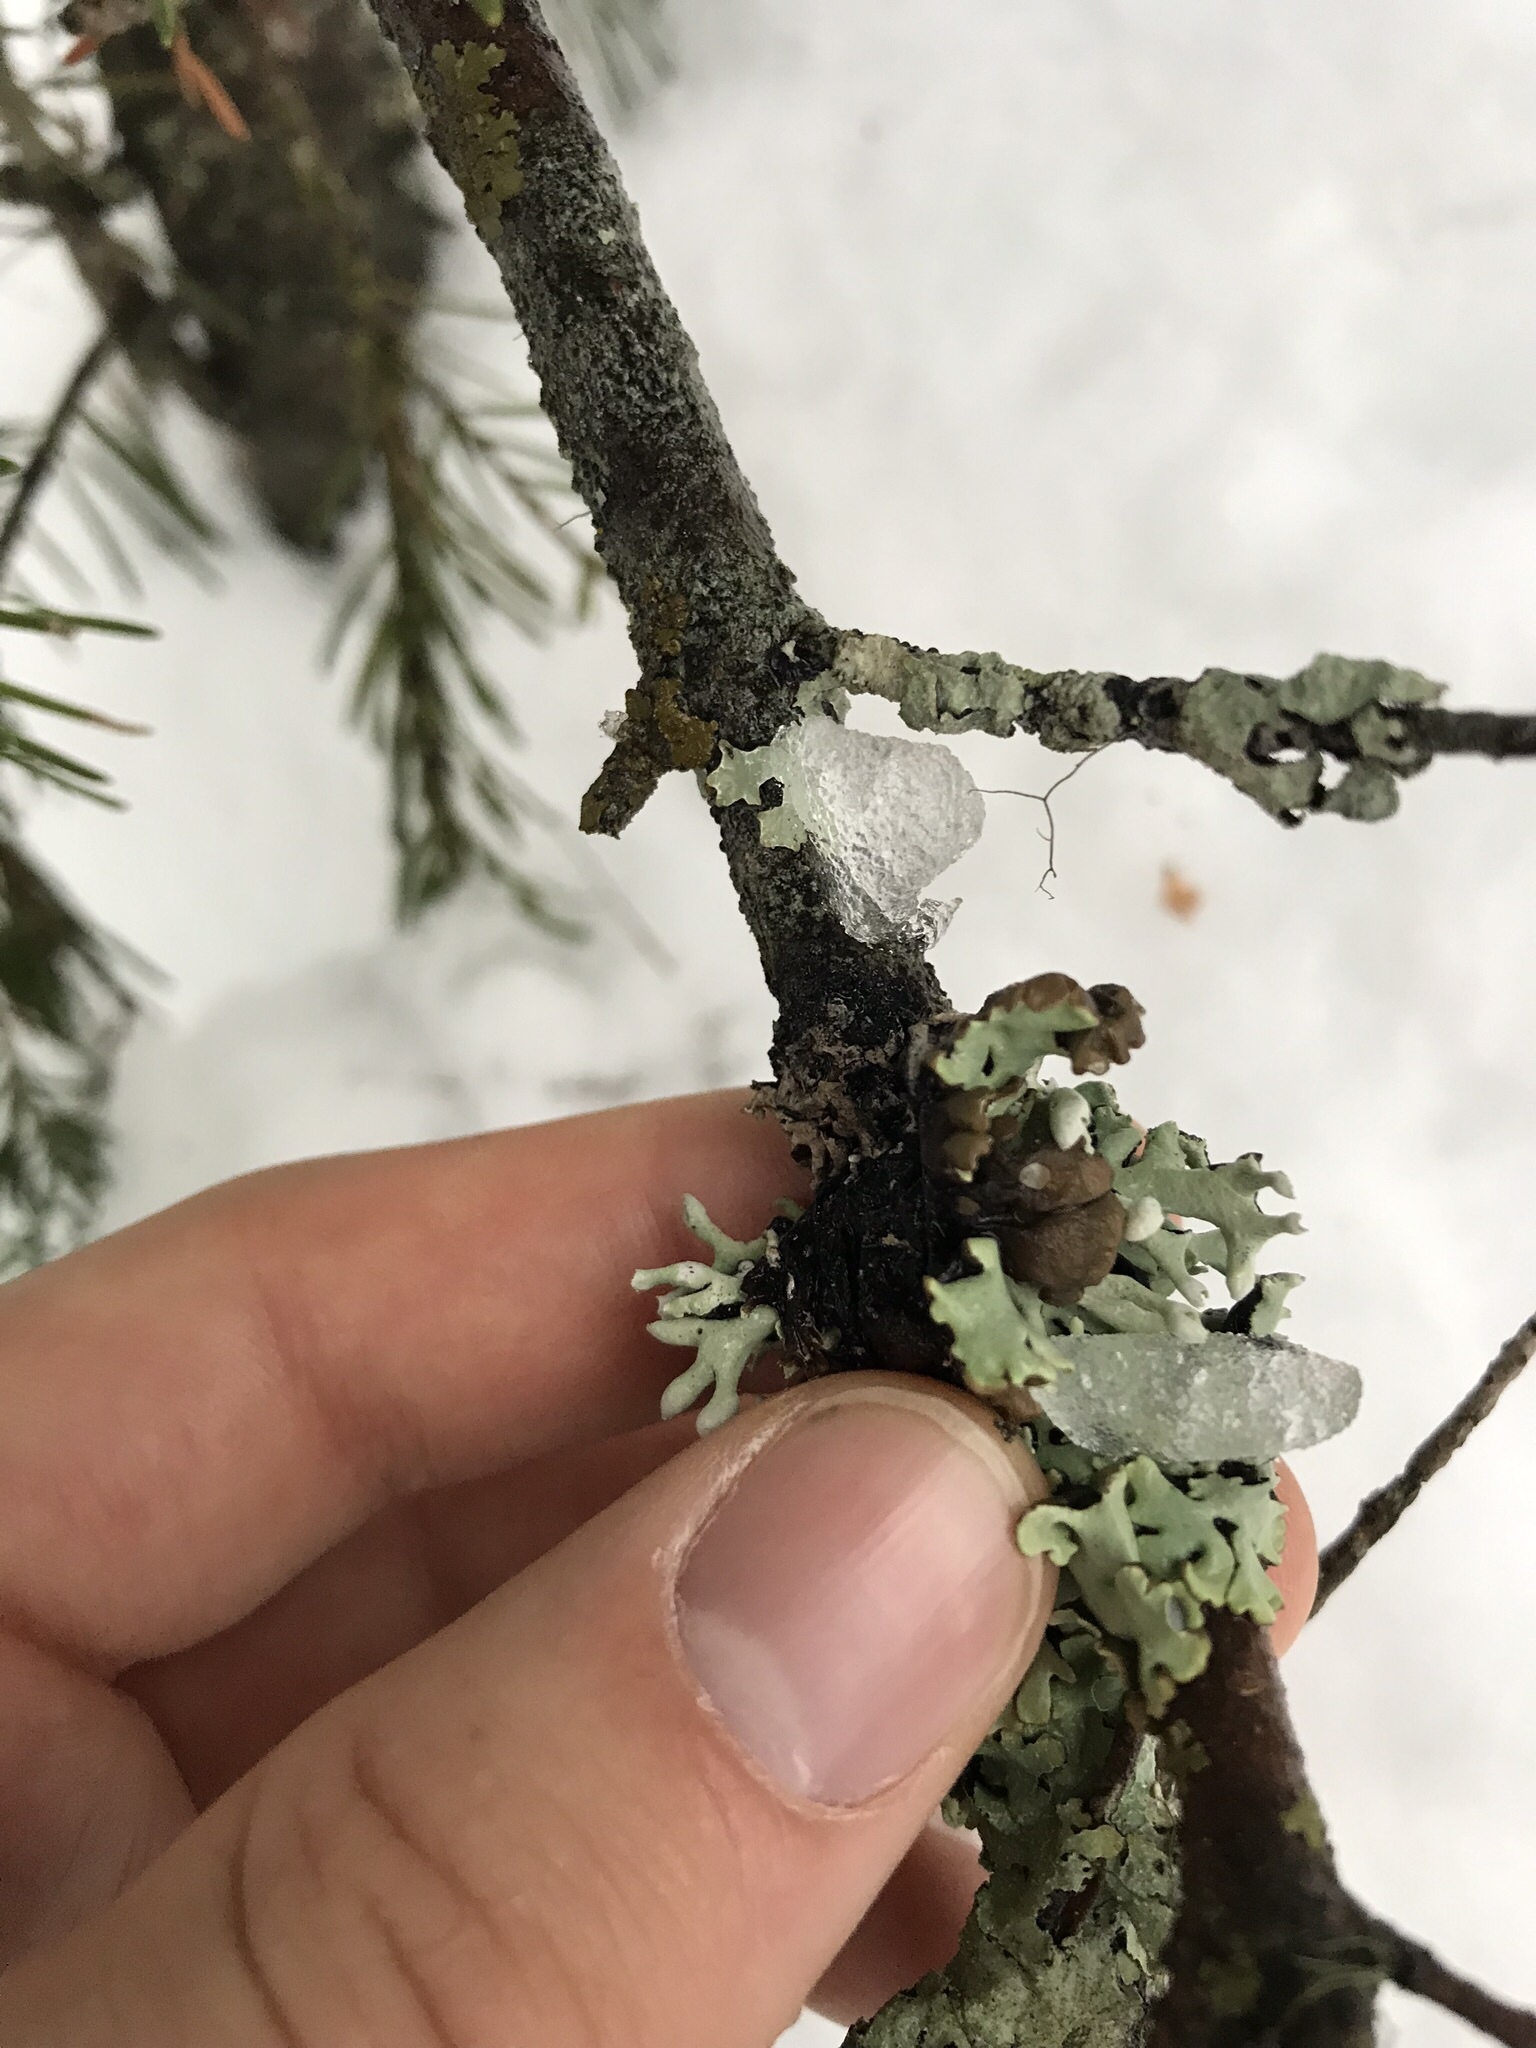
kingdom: Fungi
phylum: Ascomycota
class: Lecanoromycetes
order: Lecanorales
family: Parmeliaceae
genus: Hypogymnia
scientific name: Hypogymnia physodes
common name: Dark crottle
